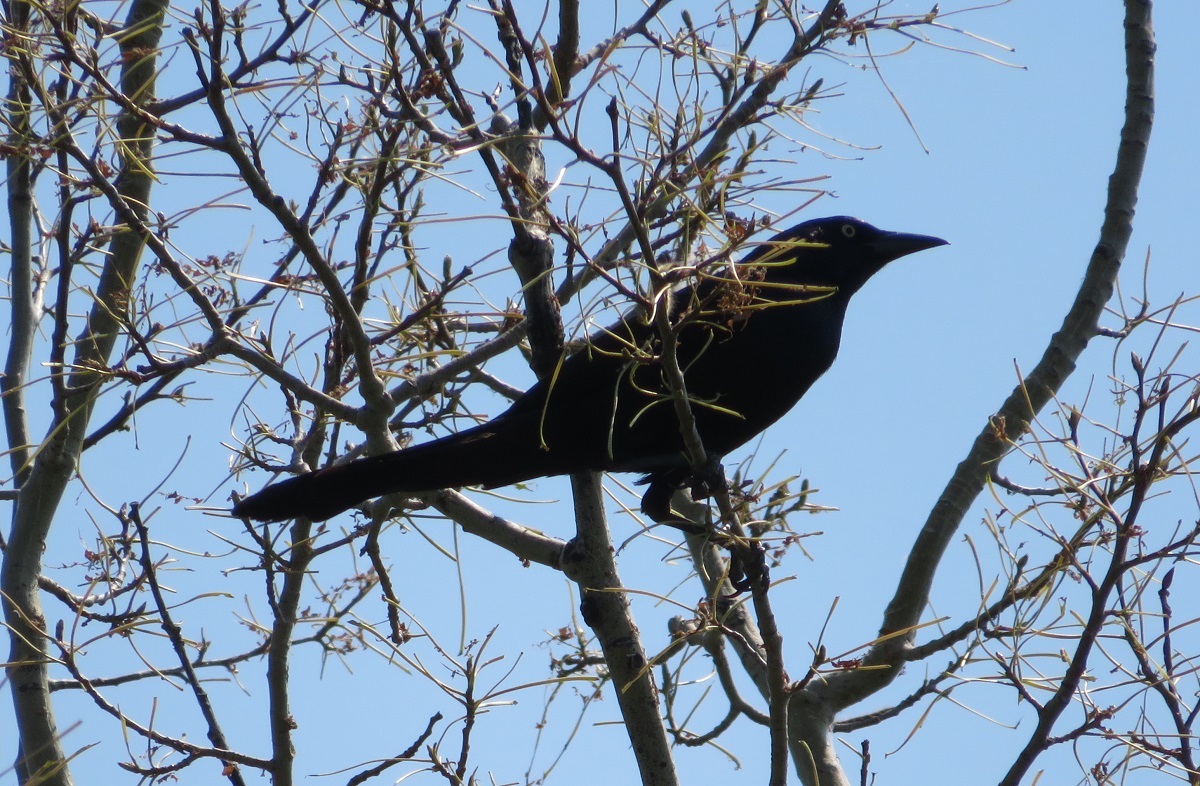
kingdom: Animalia
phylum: Chordata
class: Aves
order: Passeriformes
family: Icteridae
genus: Quiscalus
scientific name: Quiscalus quiscula
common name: Common grackle
